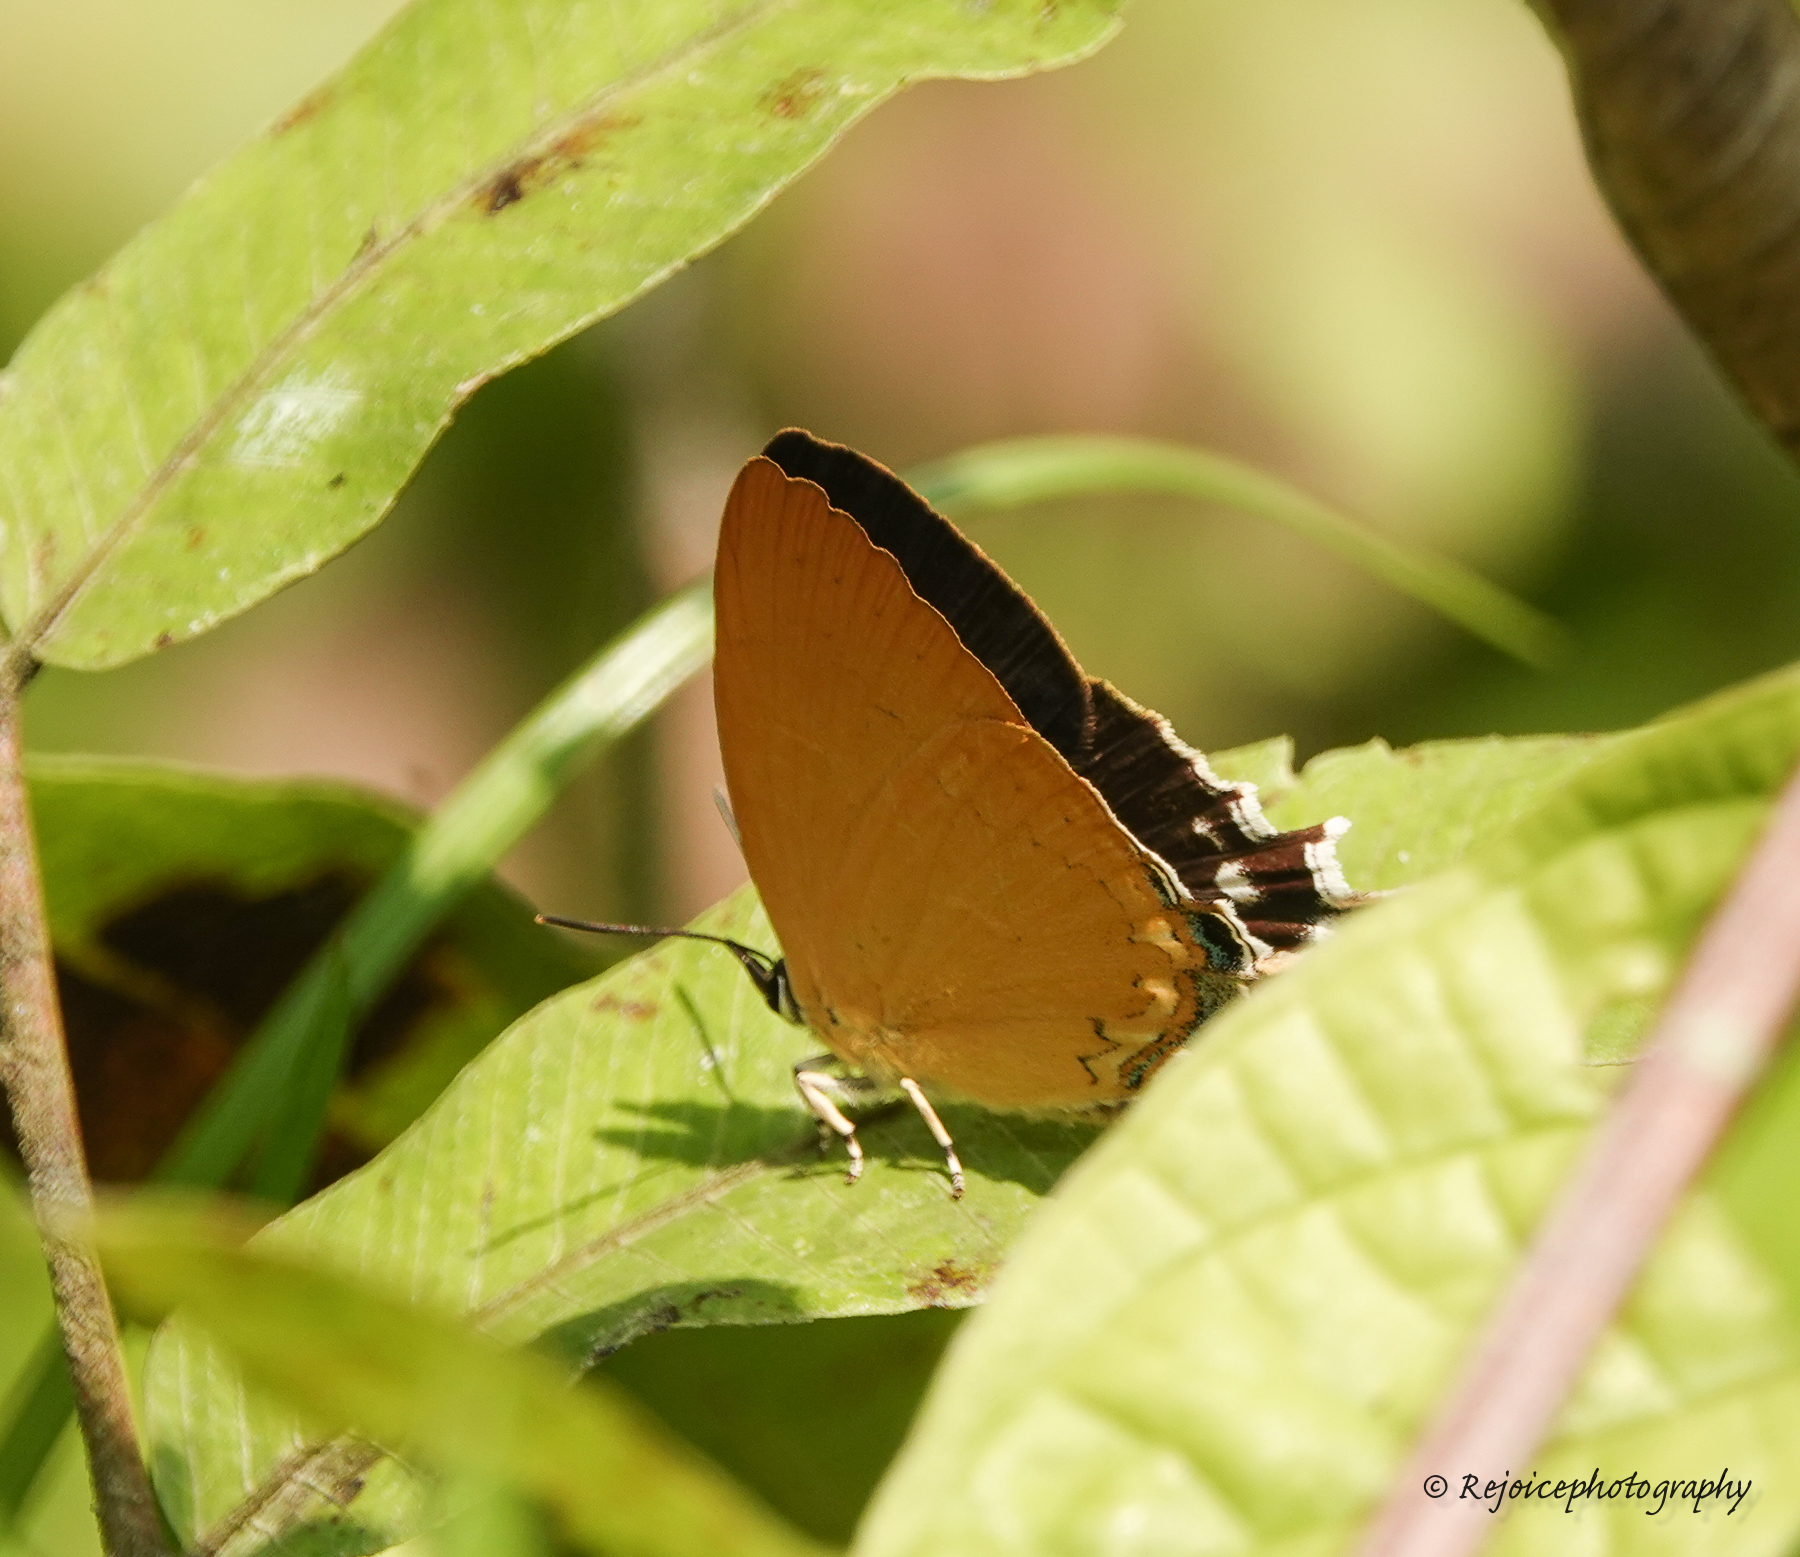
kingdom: Animalia
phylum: Arthropoda
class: Insecta
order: Lepidoptera
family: Lycaenidae
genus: Ticherra
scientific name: Ticherra acte
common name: Blue imperial
